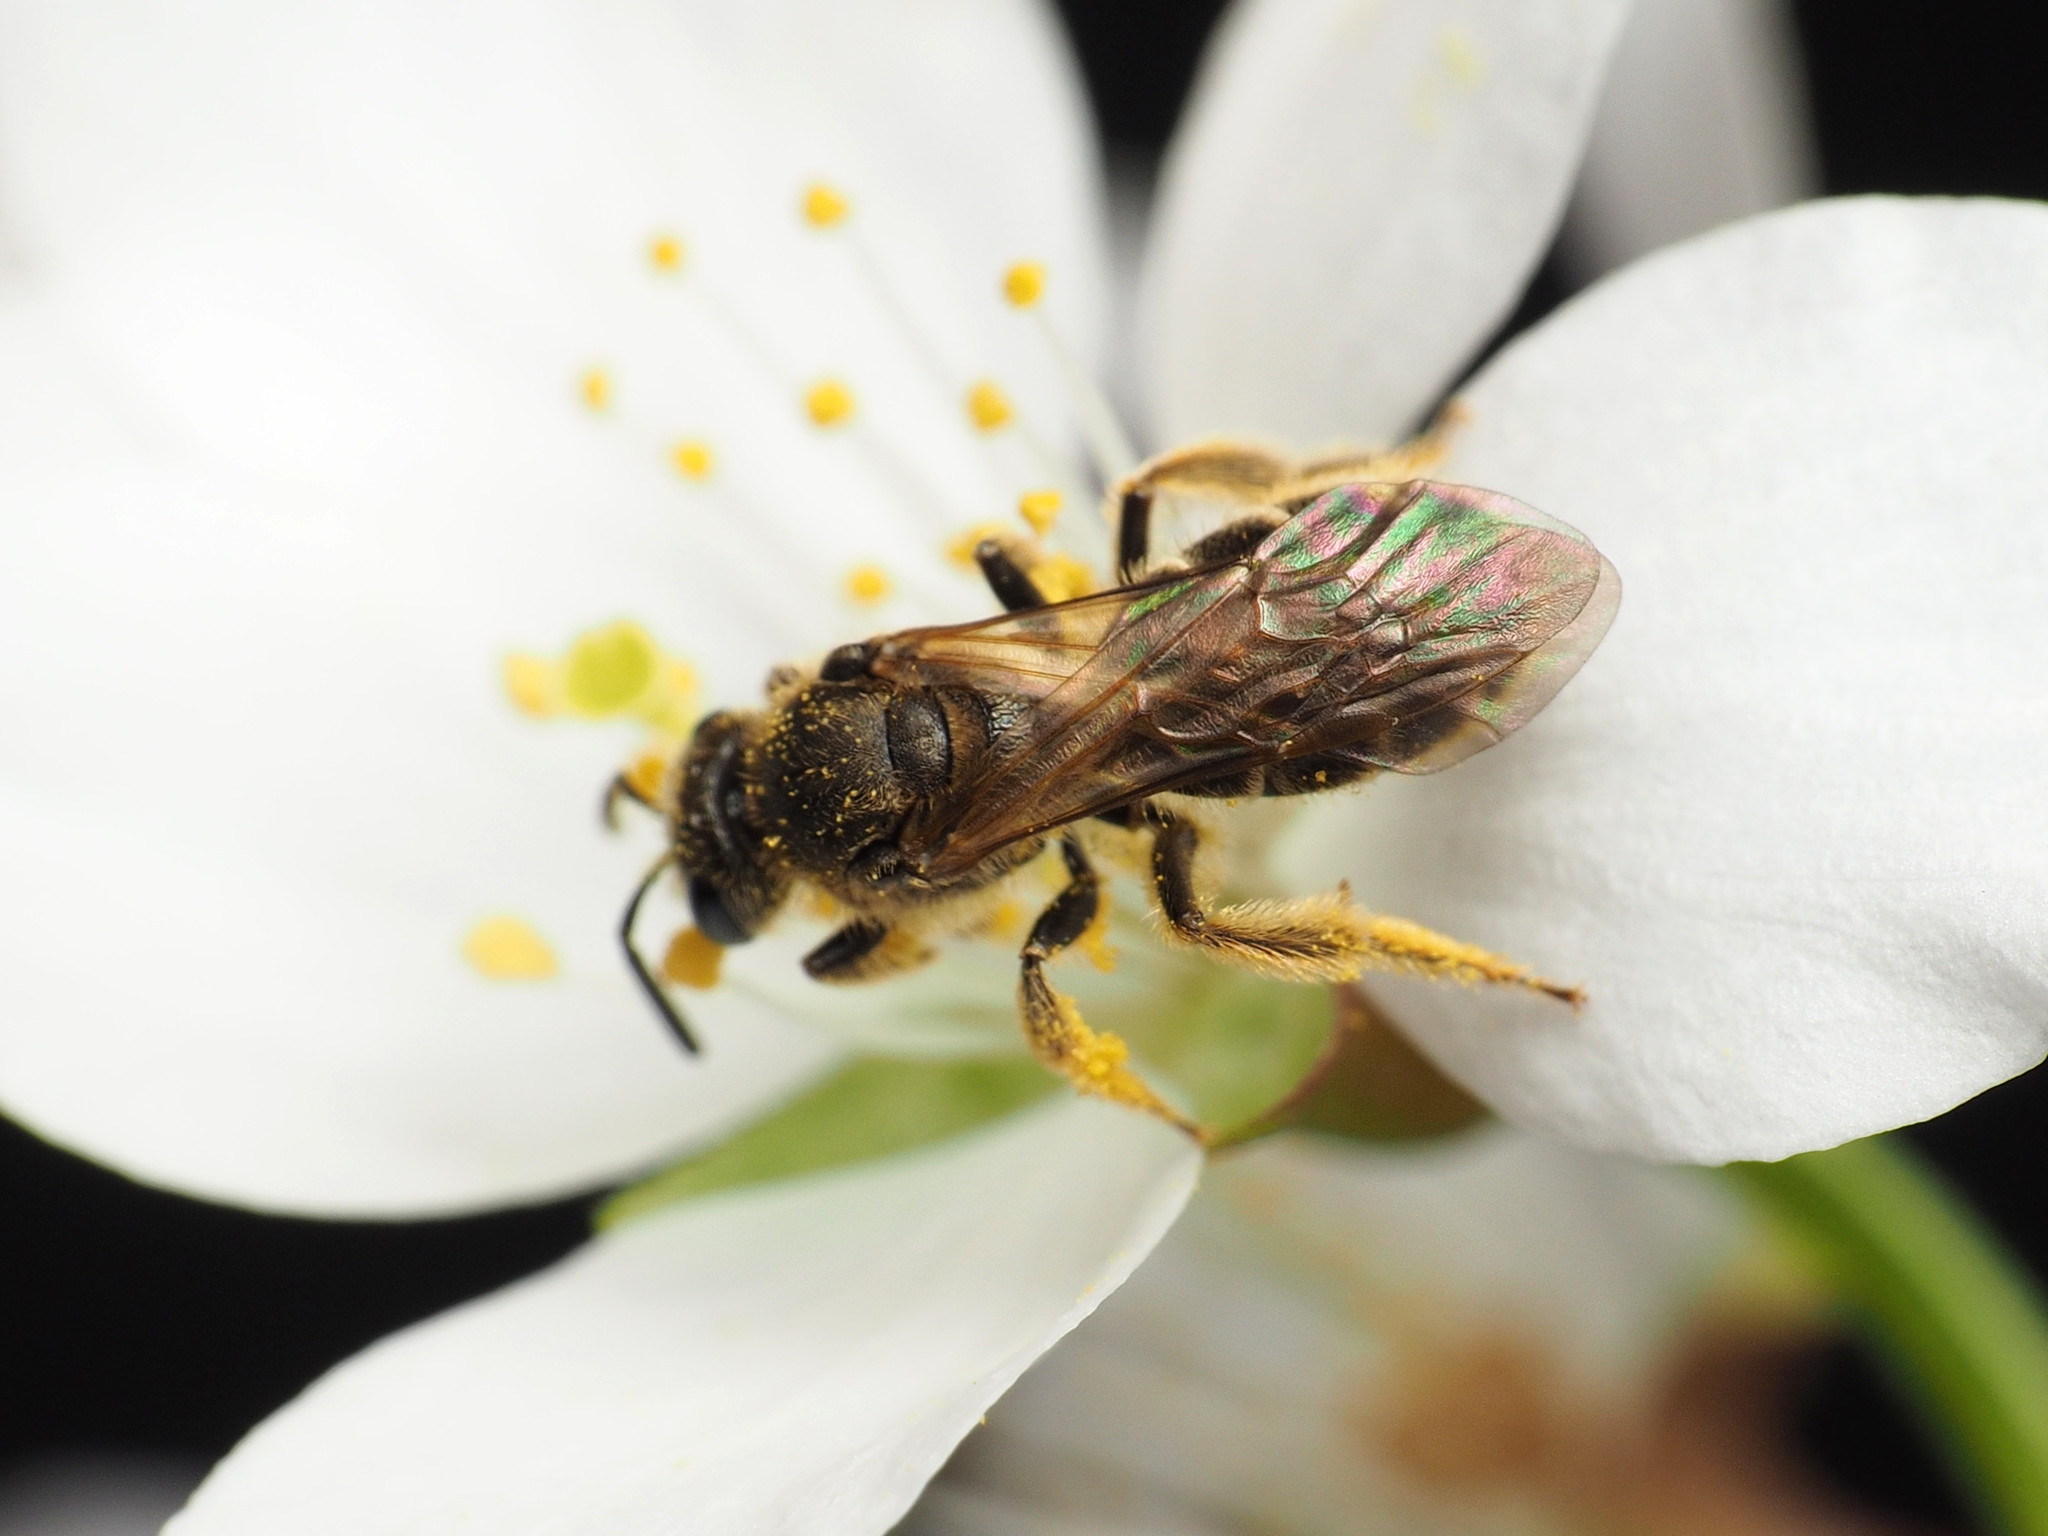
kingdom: Animalia
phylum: Arthropoda
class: Insecta
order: Hymenoptera
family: Halictidae
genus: Lasioglossum
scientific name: Lasioglossum quebecense
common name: Quebec sweat bee
